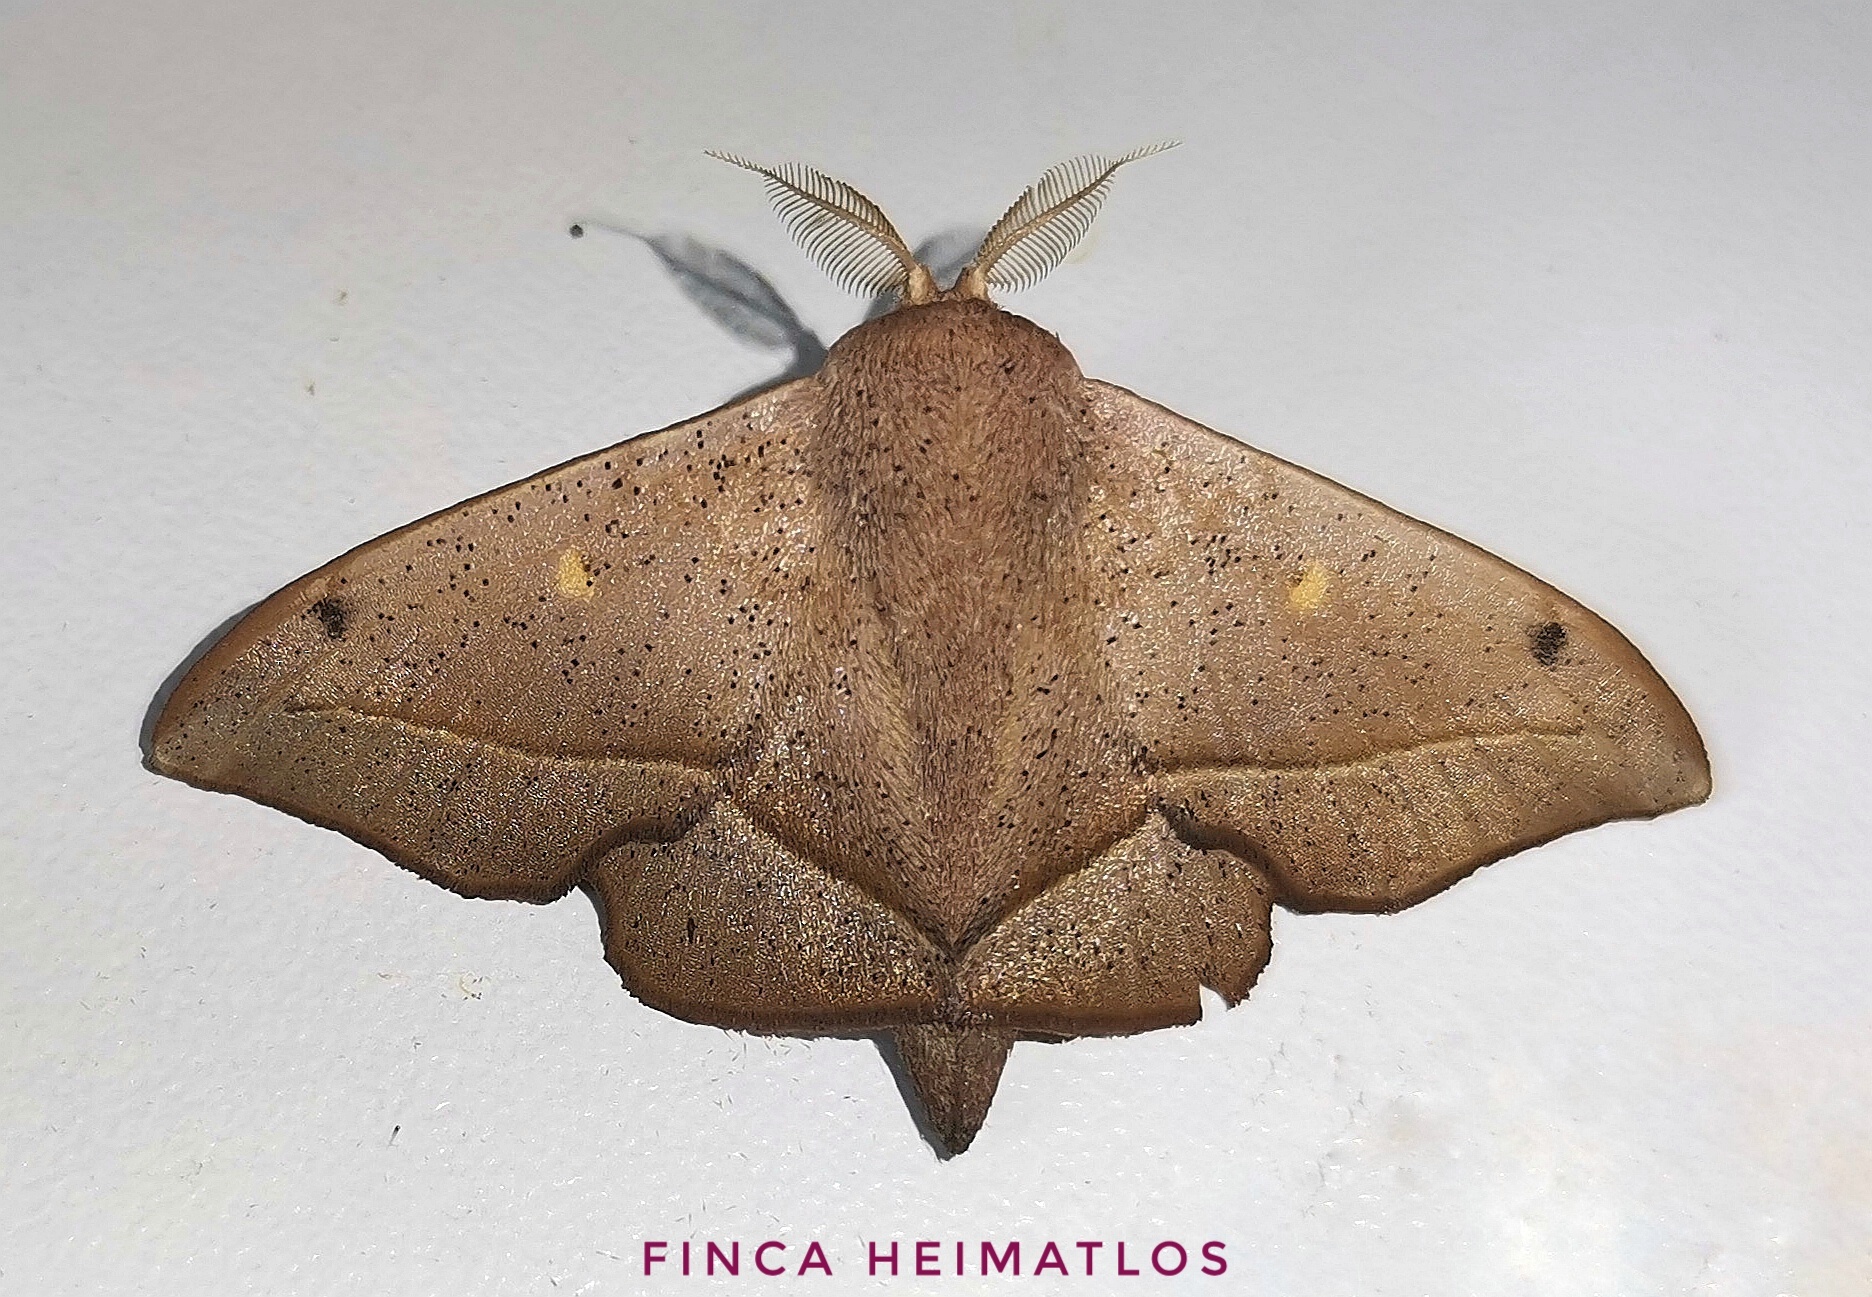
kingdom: Animalia
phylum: Arthropoda
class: Insecta
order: Lepidoptera
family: Mimallonidae
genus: Druentica
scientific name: Druentica partha
